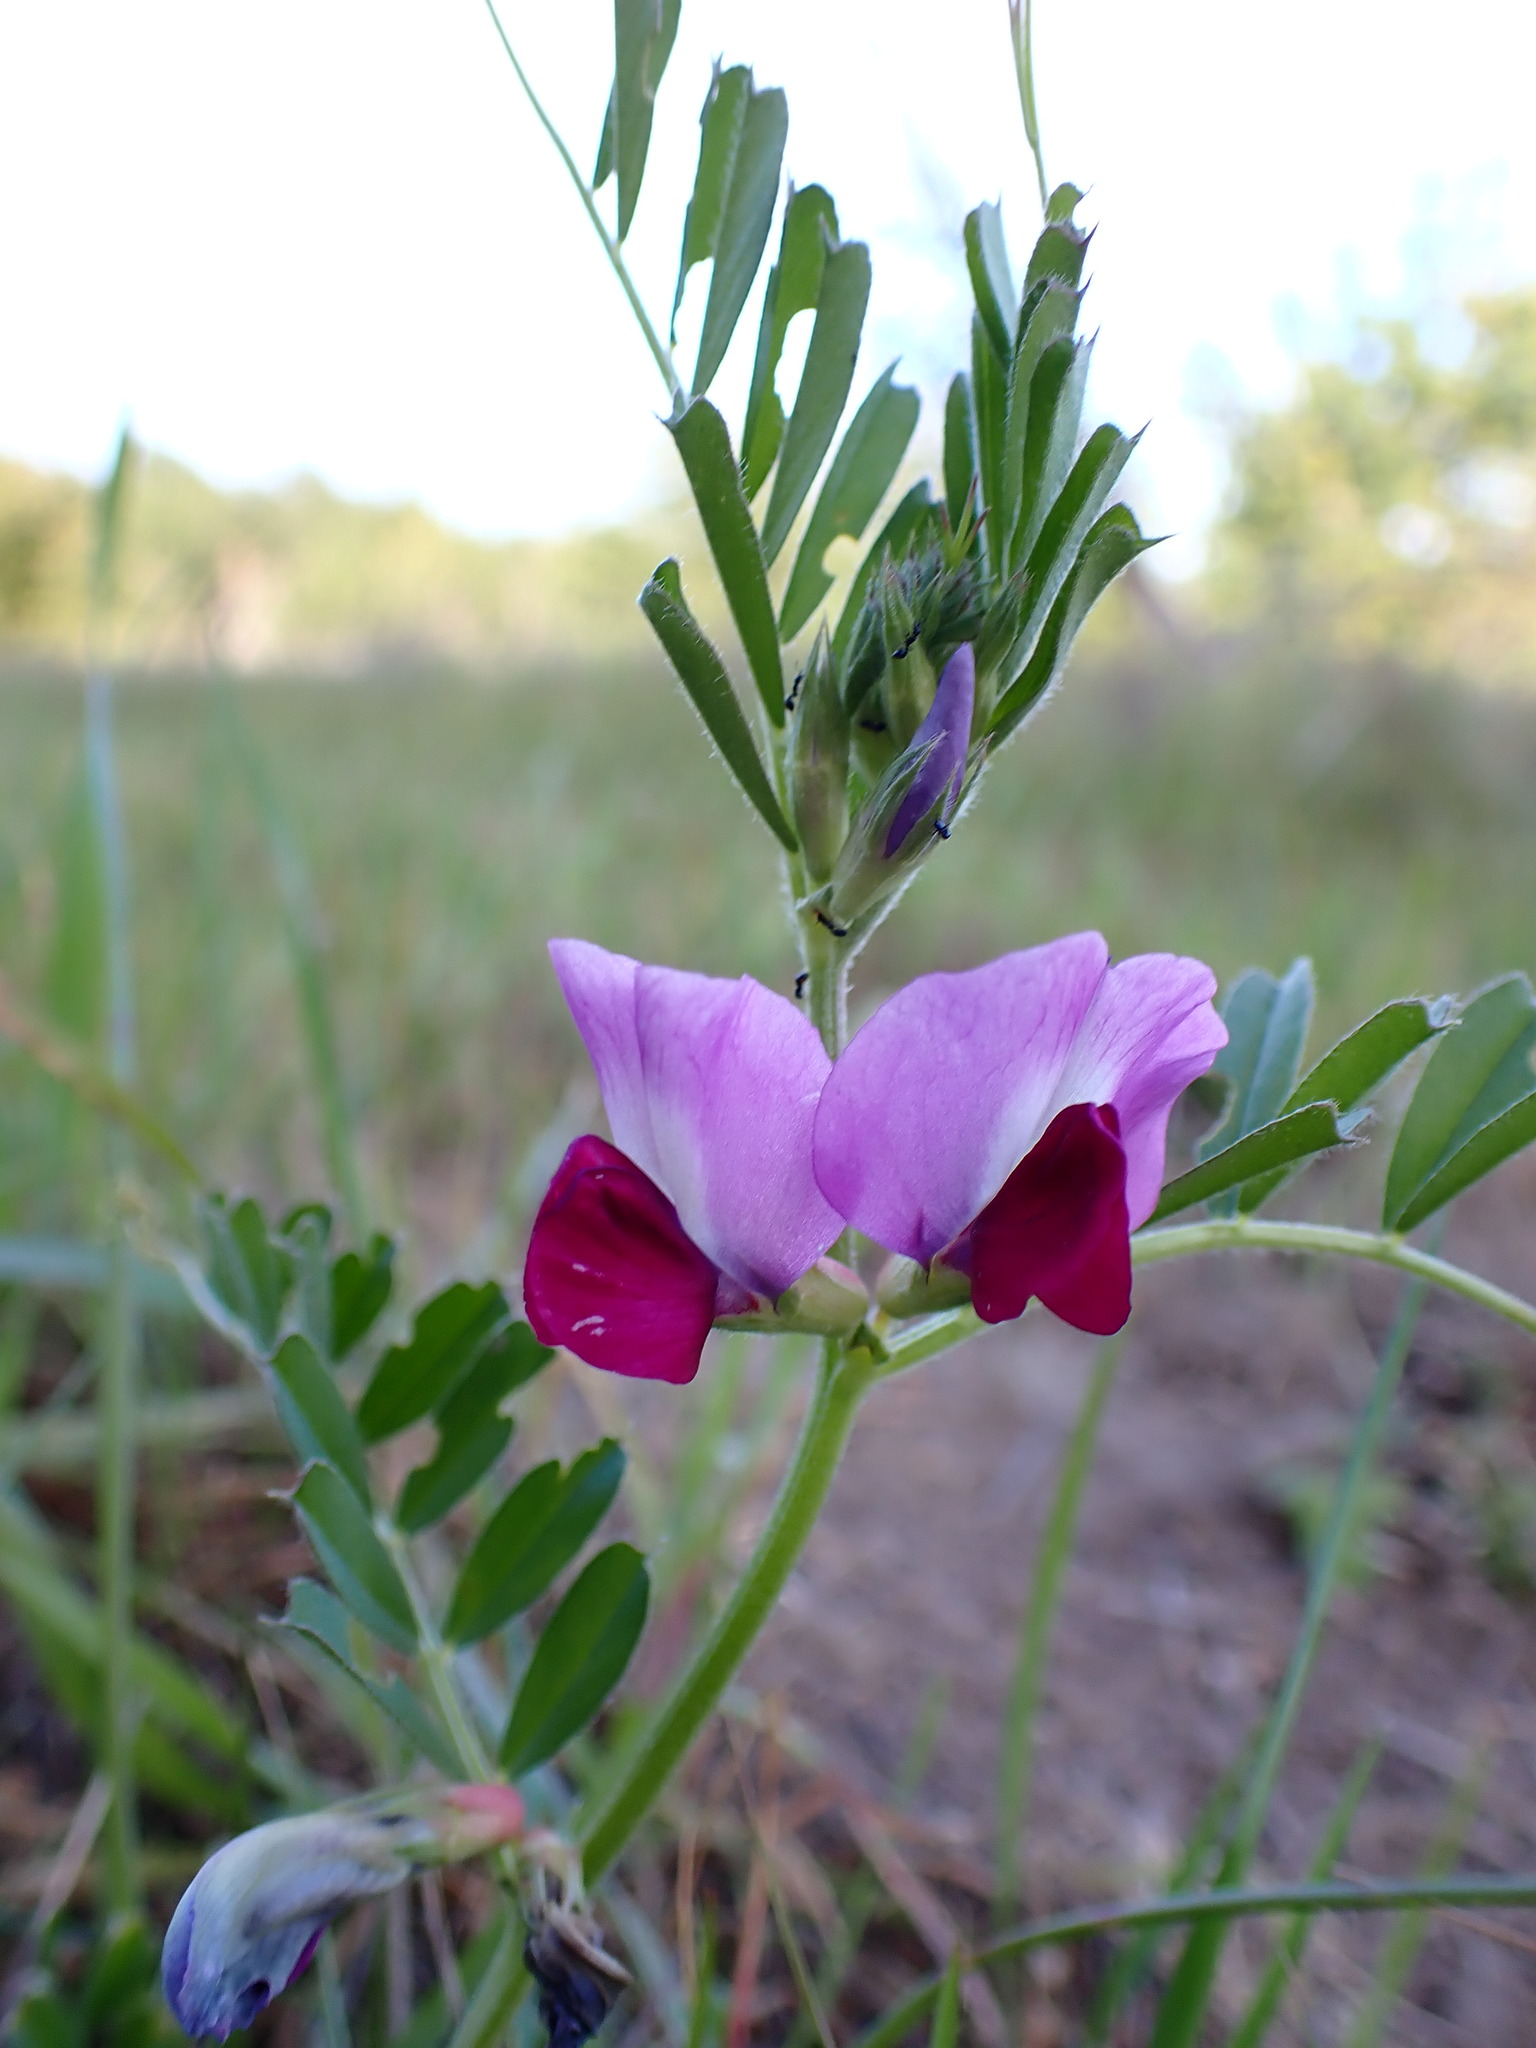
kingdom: Plantae
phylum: Tracheophyta
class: Magnoliopsida
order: Fabales
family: Fabaceae
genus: Vicia
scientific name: Vicia sativa
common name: Garden vetch
